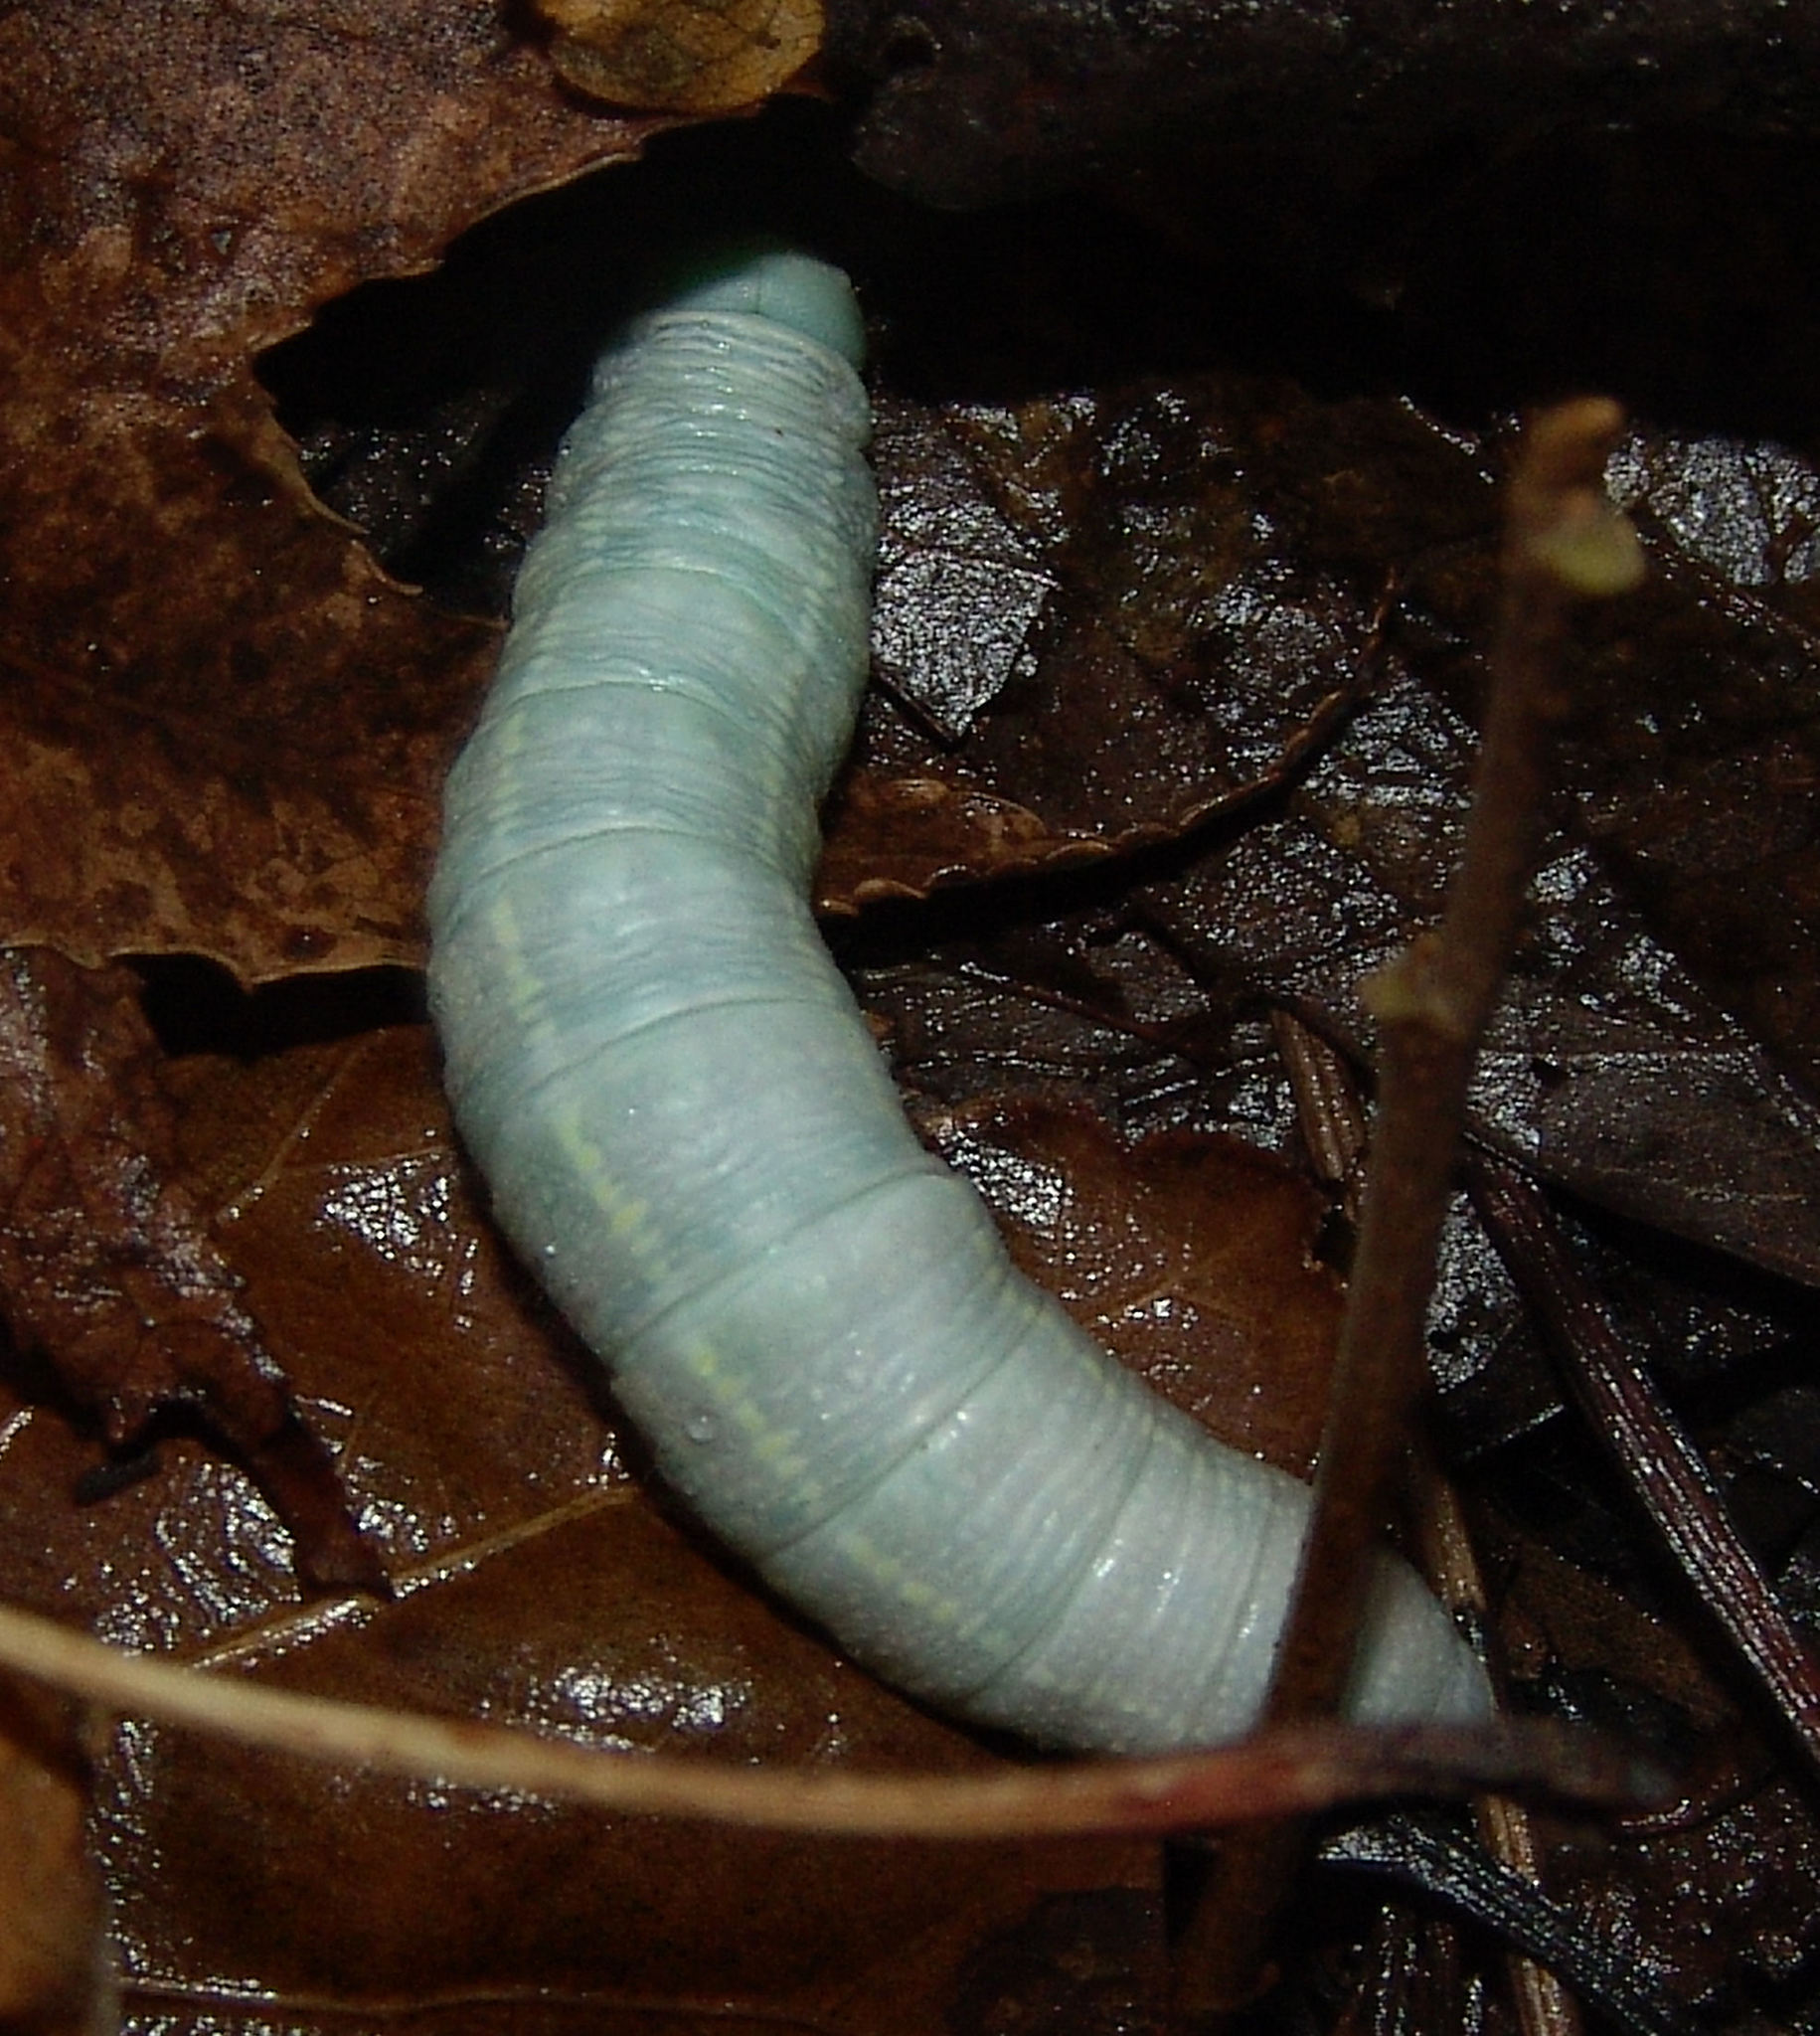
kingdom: Animalia
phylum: Arthropoda
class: Insecta
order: Lepidoptera
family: Notodontidae
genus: Nadata
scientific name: Nadata gibbosa
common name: White-dotted prominent
